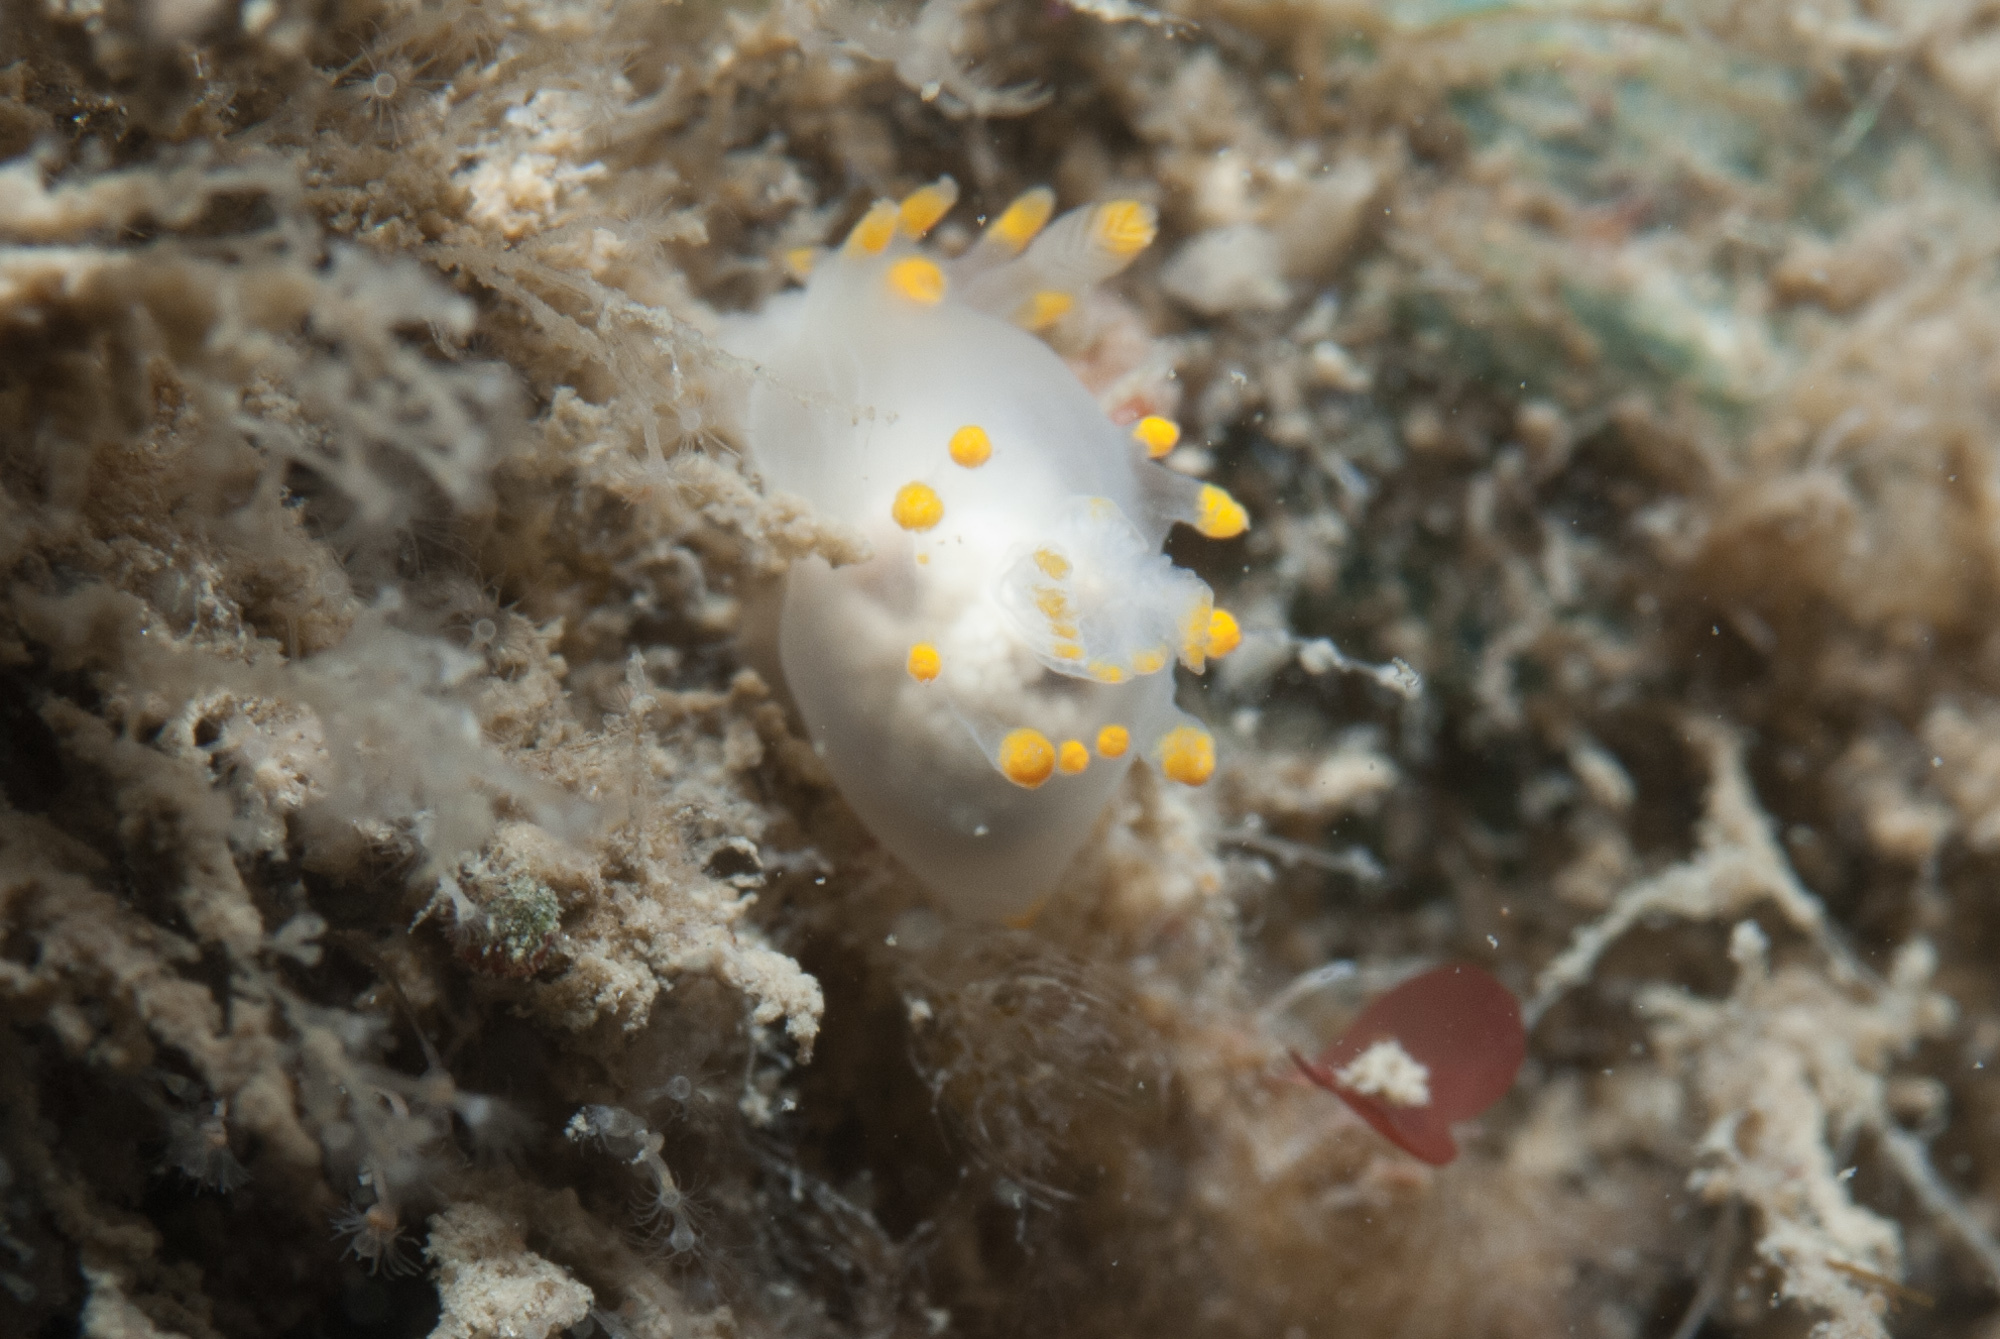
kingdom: Animalia
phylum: Mollusca
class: Gastropoda
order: Nudibranchia
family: Goniodorididae
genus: Ancula
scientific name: Ancula gibbosa
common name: Atlantic ancula
